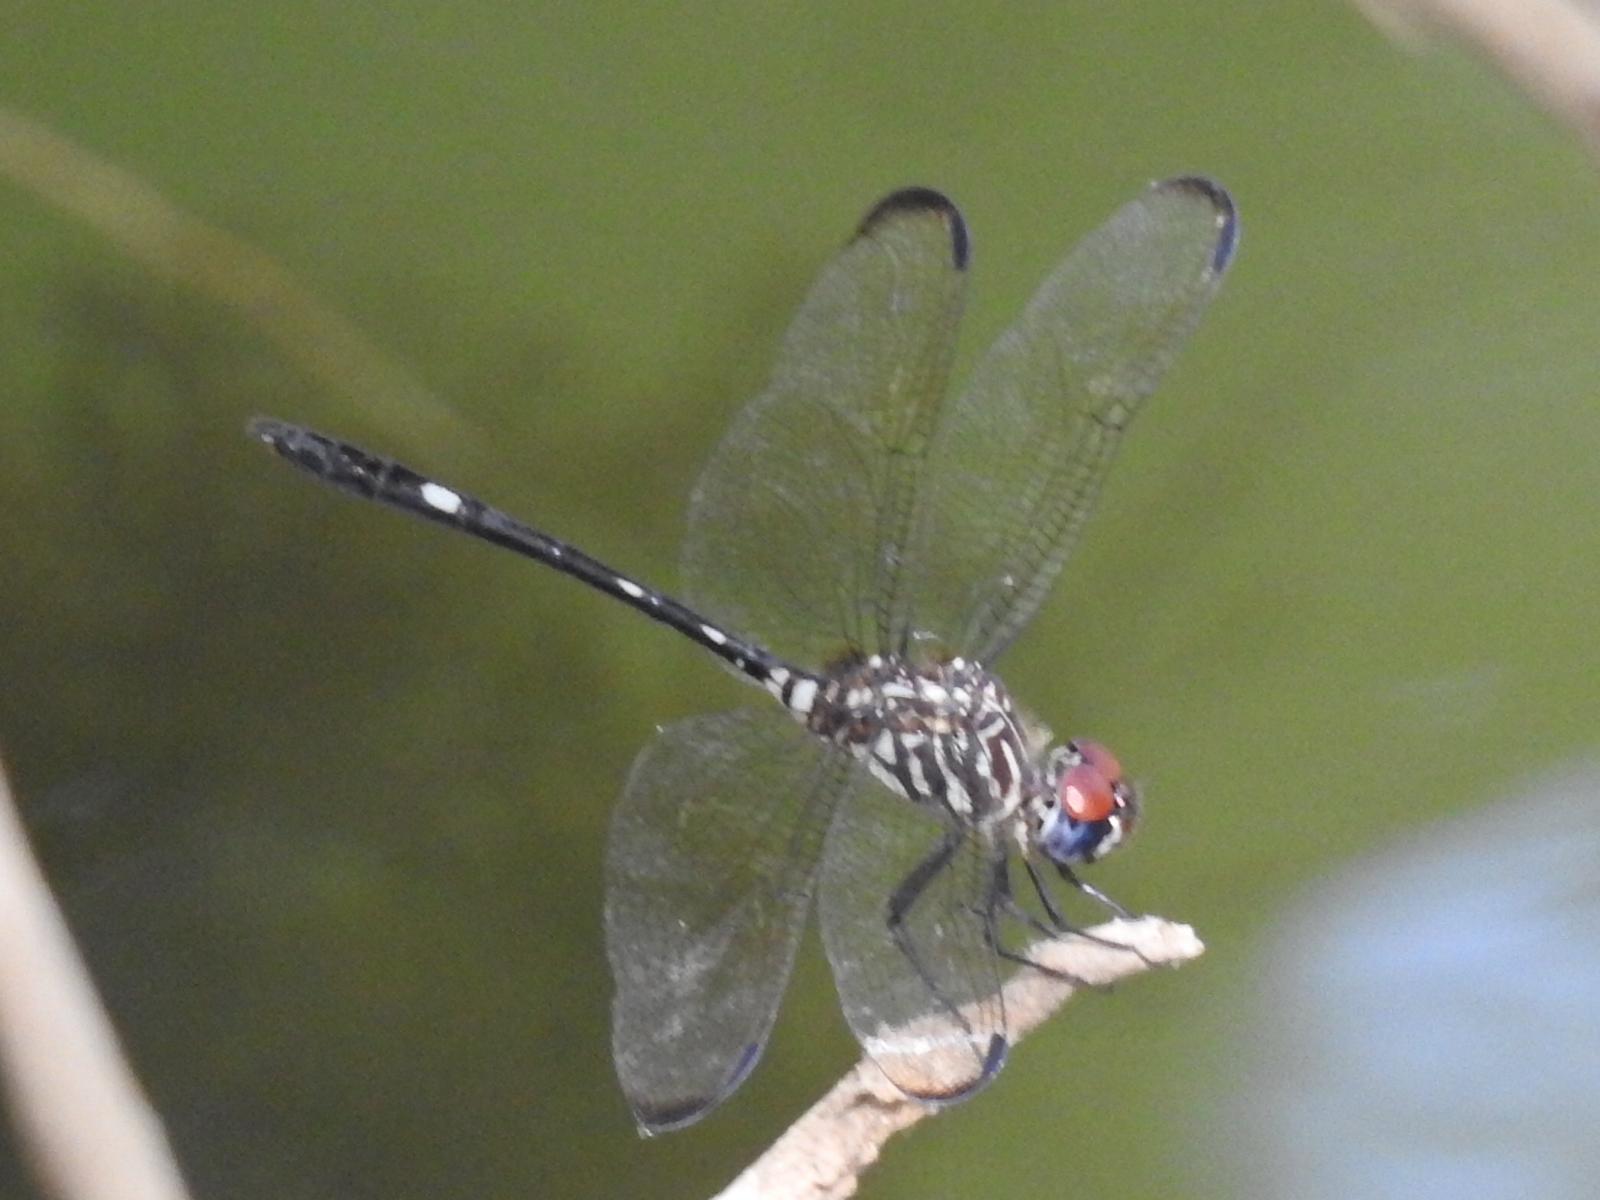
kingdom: Animalia
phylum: Arthropoda
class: Insecta
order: Odonata
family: Libellulidae
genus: Dythemis
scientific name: Dythemis velox
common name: Swift setwing
